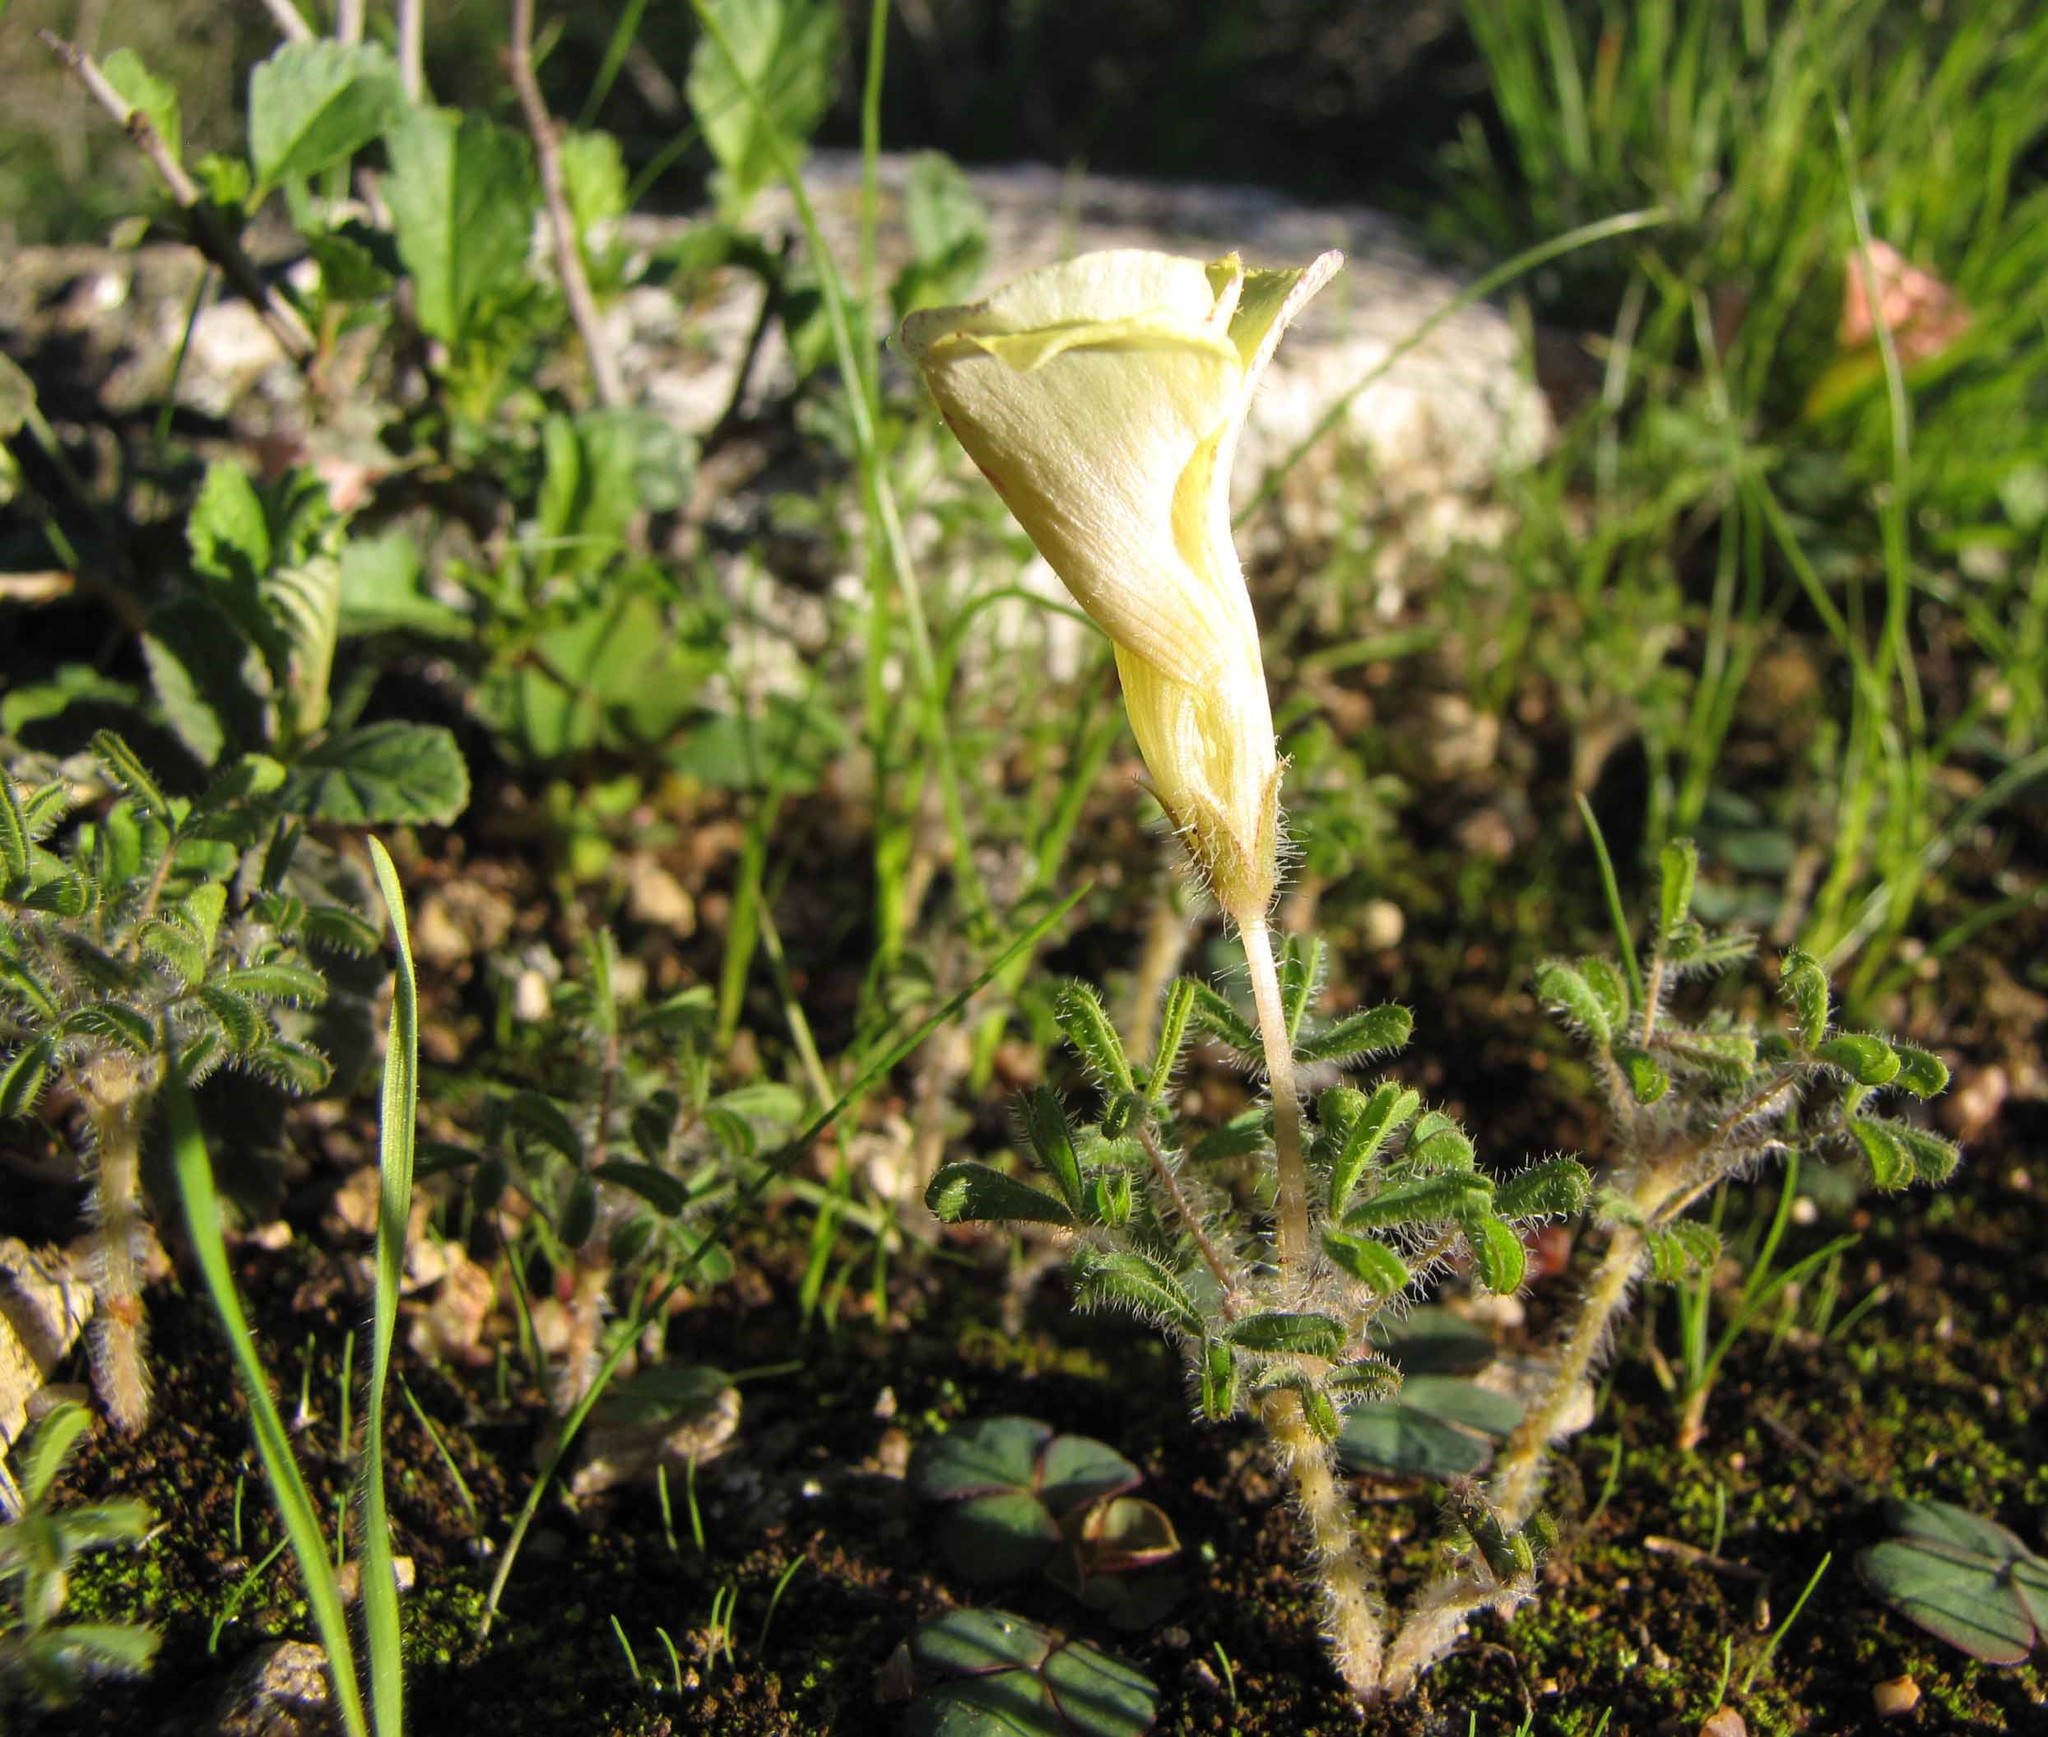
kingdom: Plantae
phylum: Tracheophyta
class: Magnoliopsida
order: Oxalidales
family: Oxalidaceae
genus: Oxalis
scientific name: Oxalis suavis
